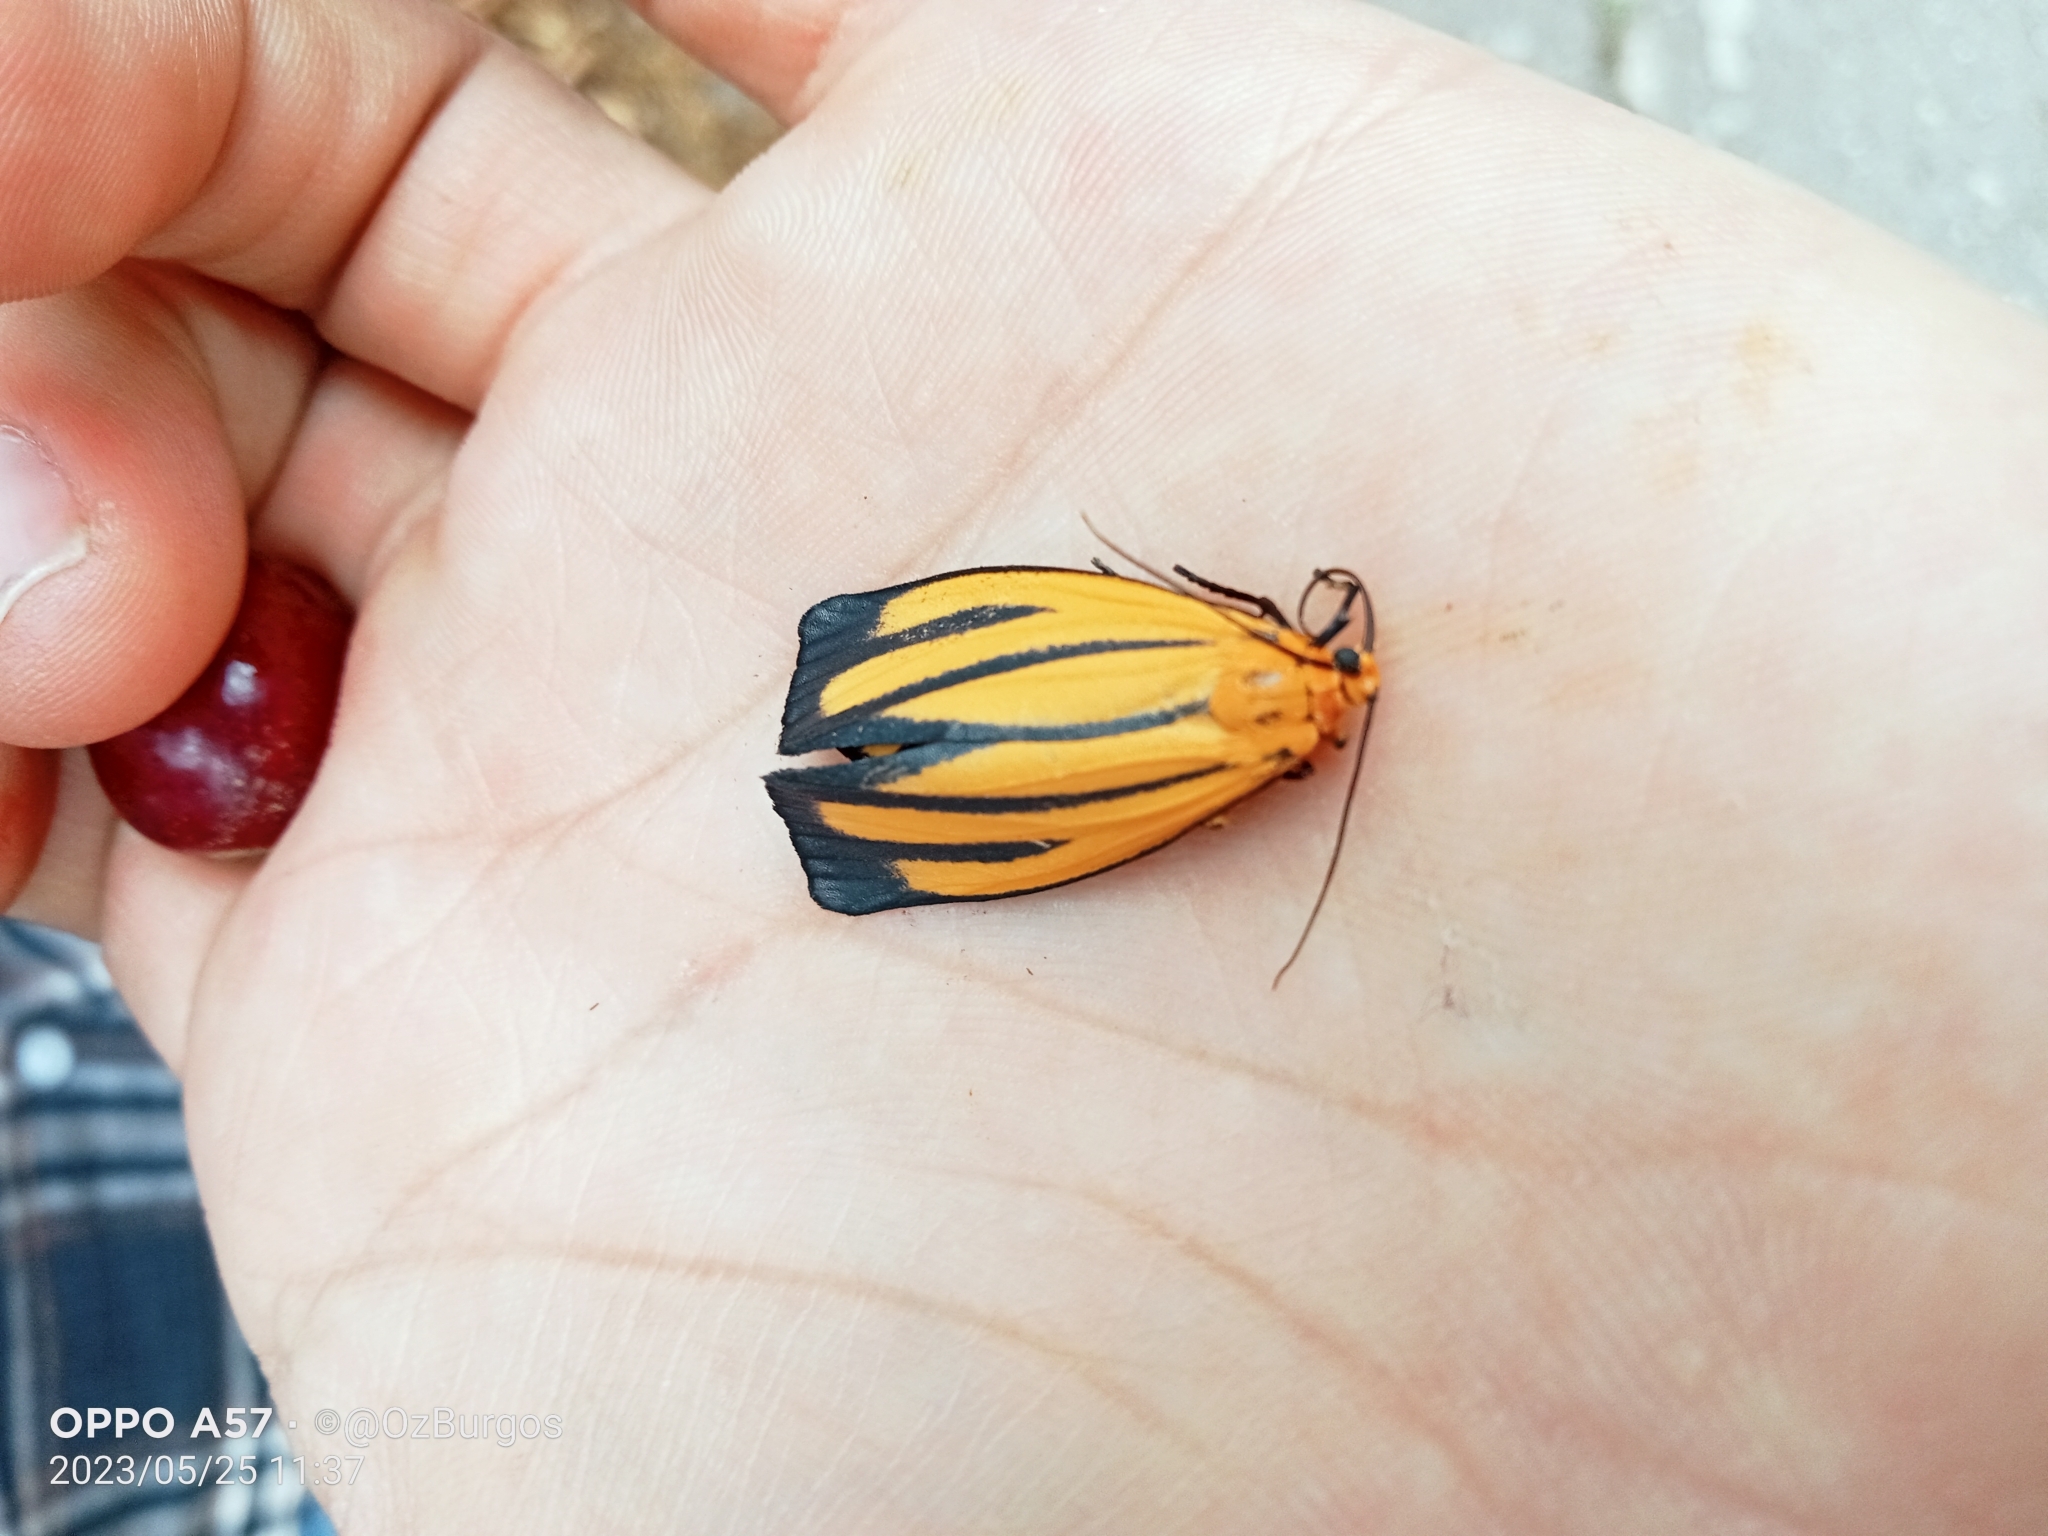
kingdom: Animalia
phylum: Arthropoda
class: Insecta
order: Lepidoptera
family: Erebidae
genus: Eurylomia
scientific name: Eurylomia cordula
